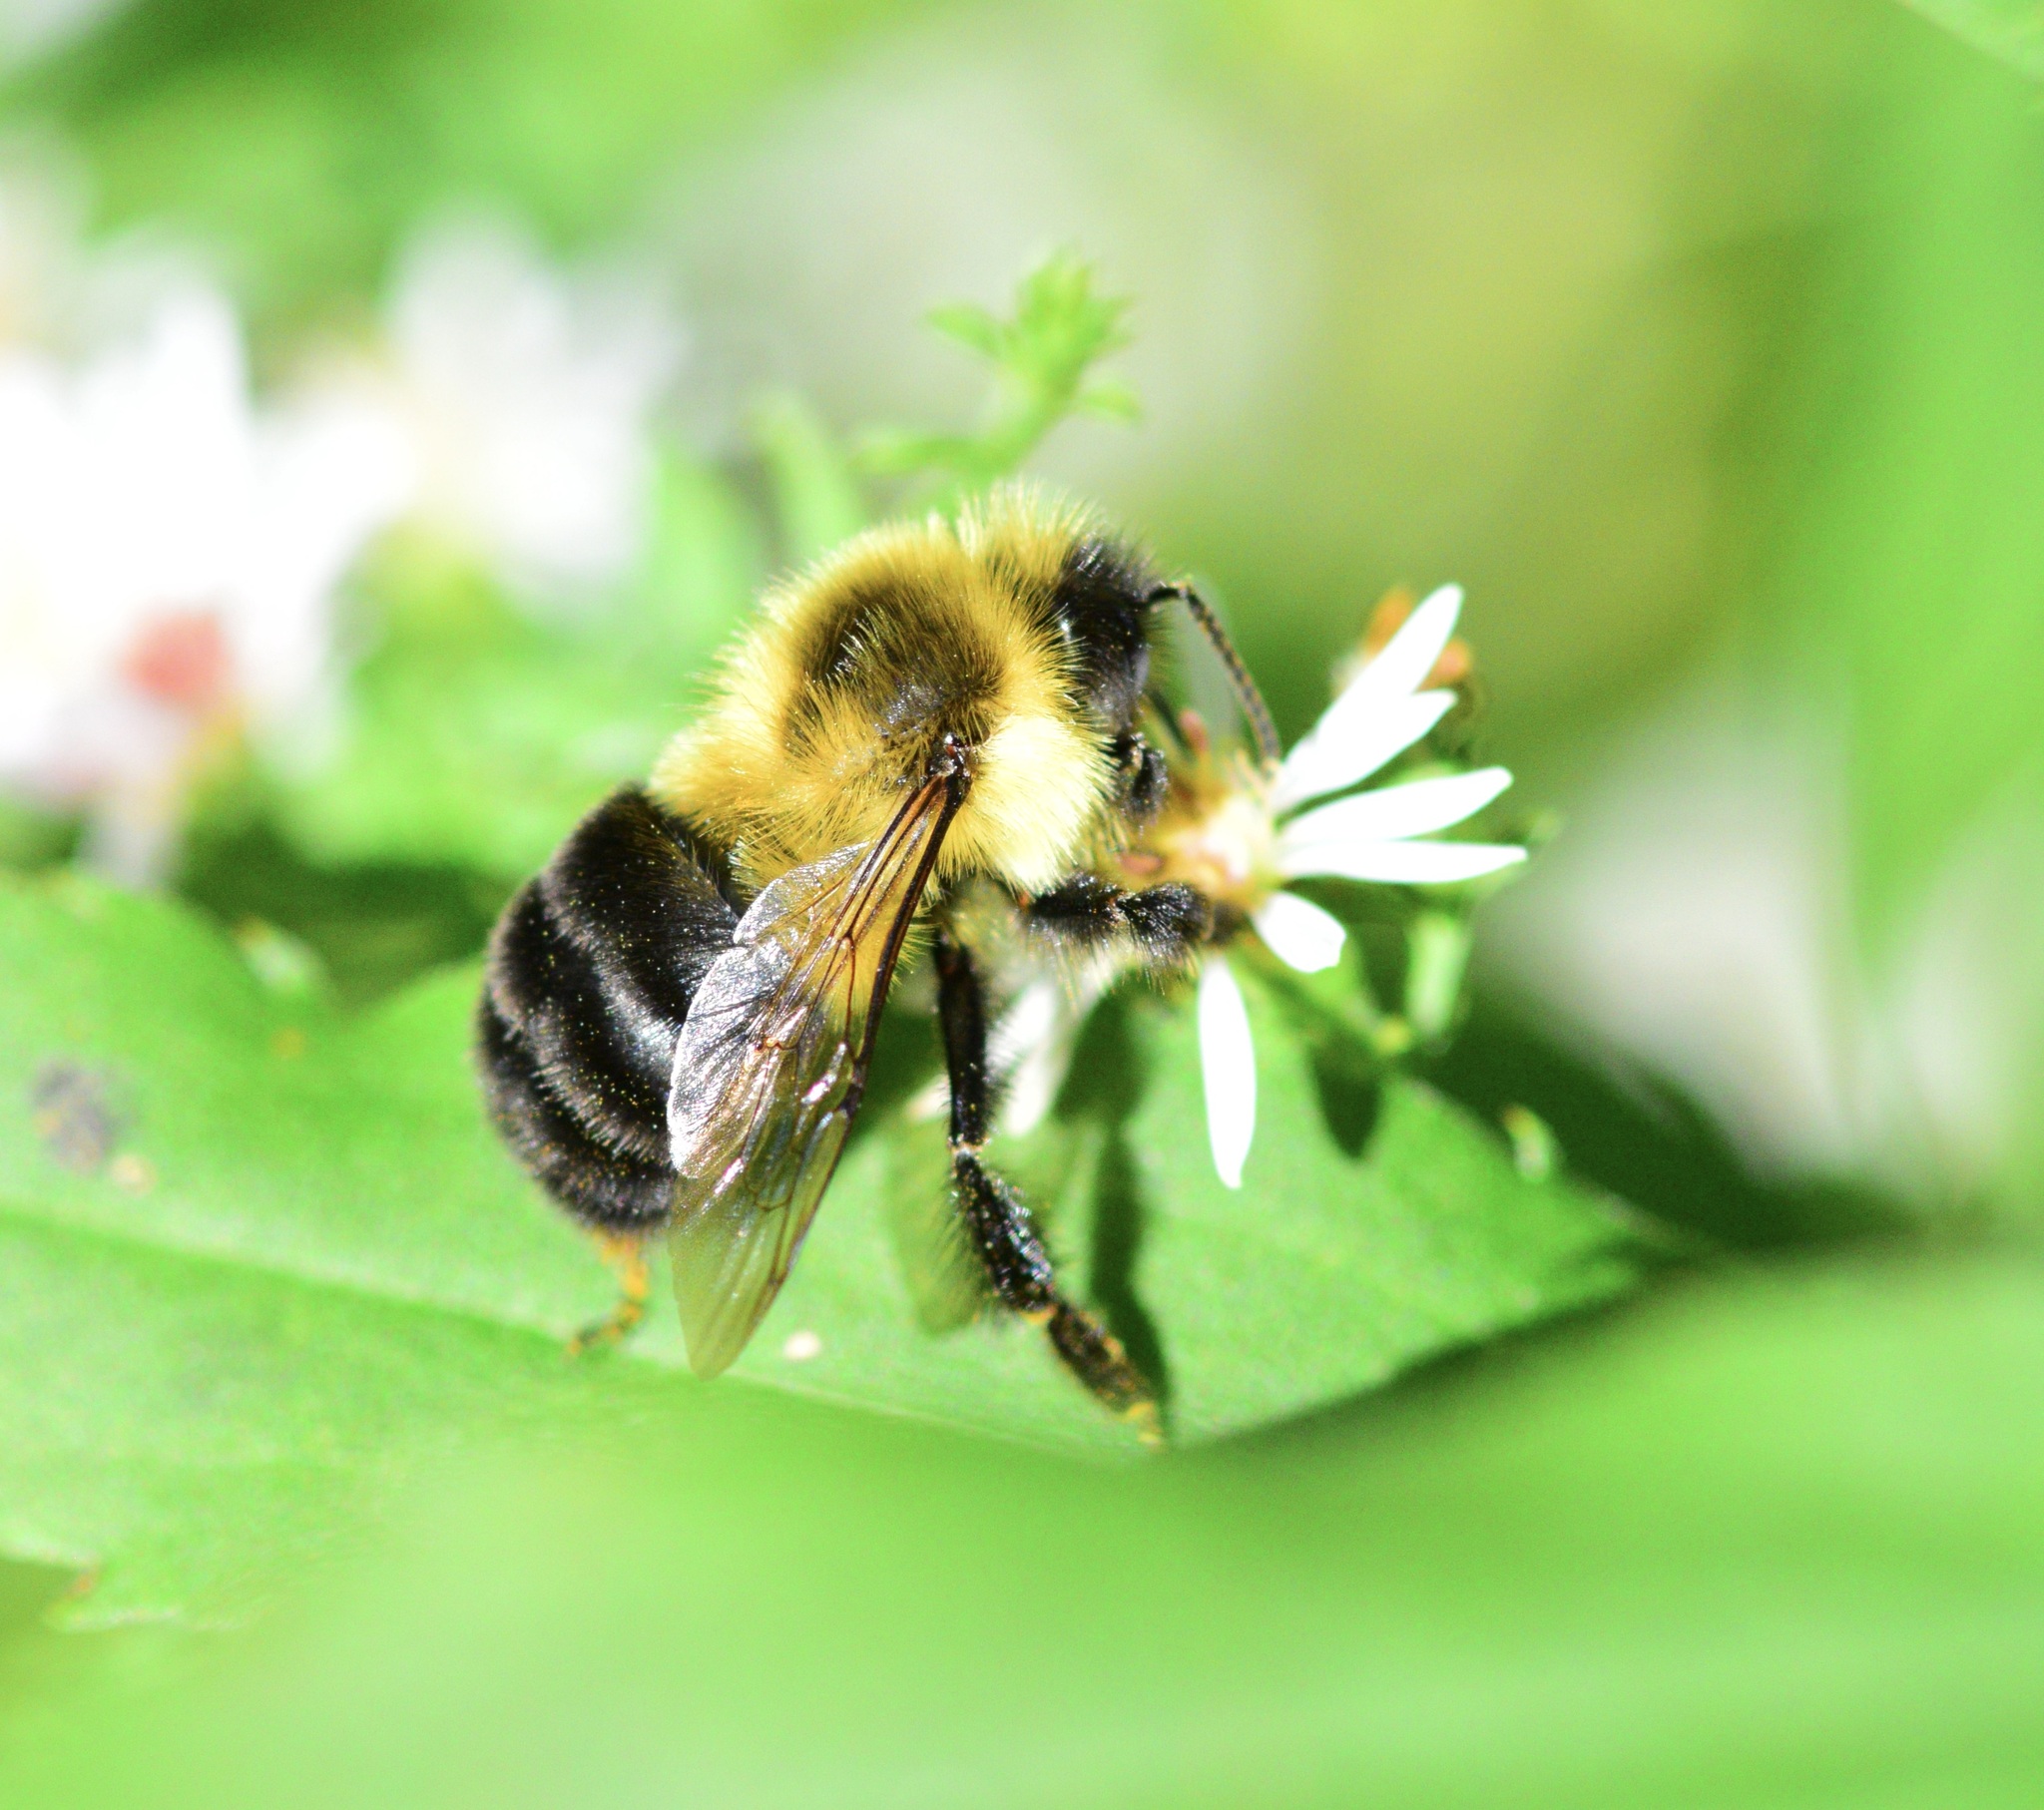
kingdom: Animalia
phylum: Arthropoda
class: Insecta
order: Hymenoptera
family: Apidae
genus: Bombus
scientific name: Bombus impatiens
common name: Common eastern bumble bee
